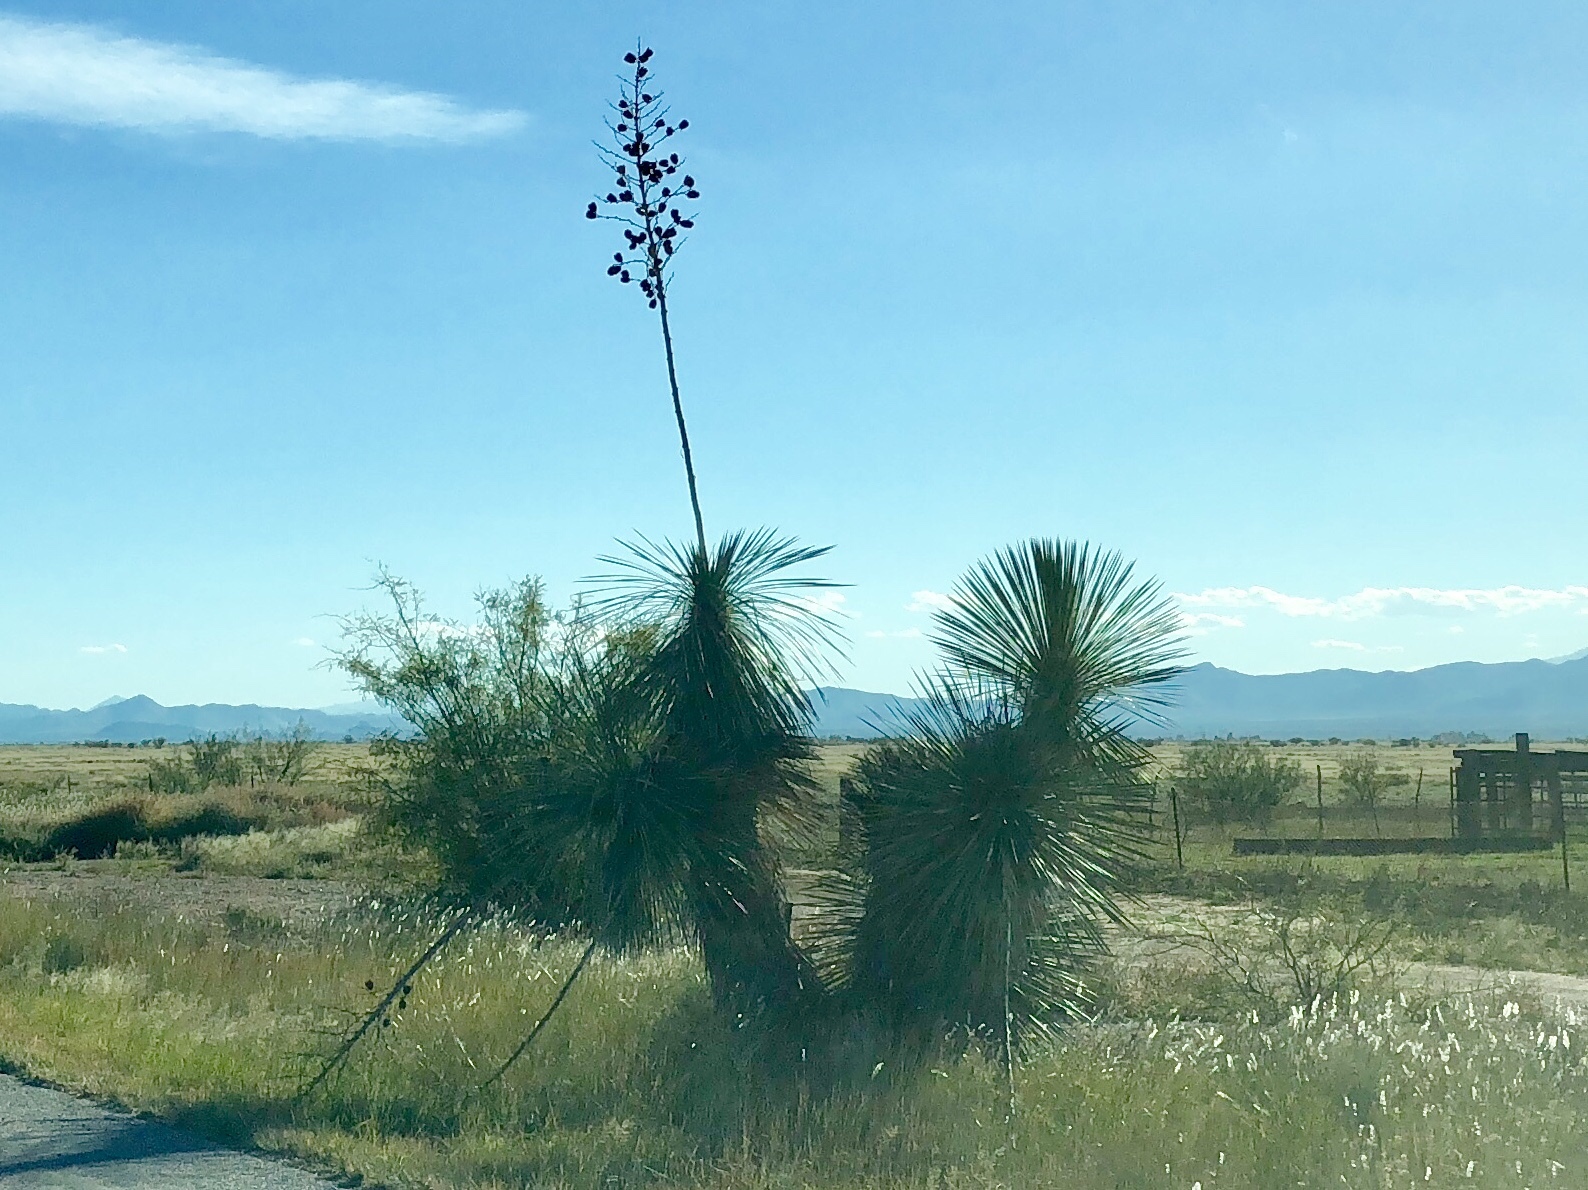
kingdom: Plantae
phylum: Tracheophyta
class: Liliopsida
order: Asparagales
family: Asparagaceae
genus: Yucca
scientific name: Yucca elata
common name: Palmella
